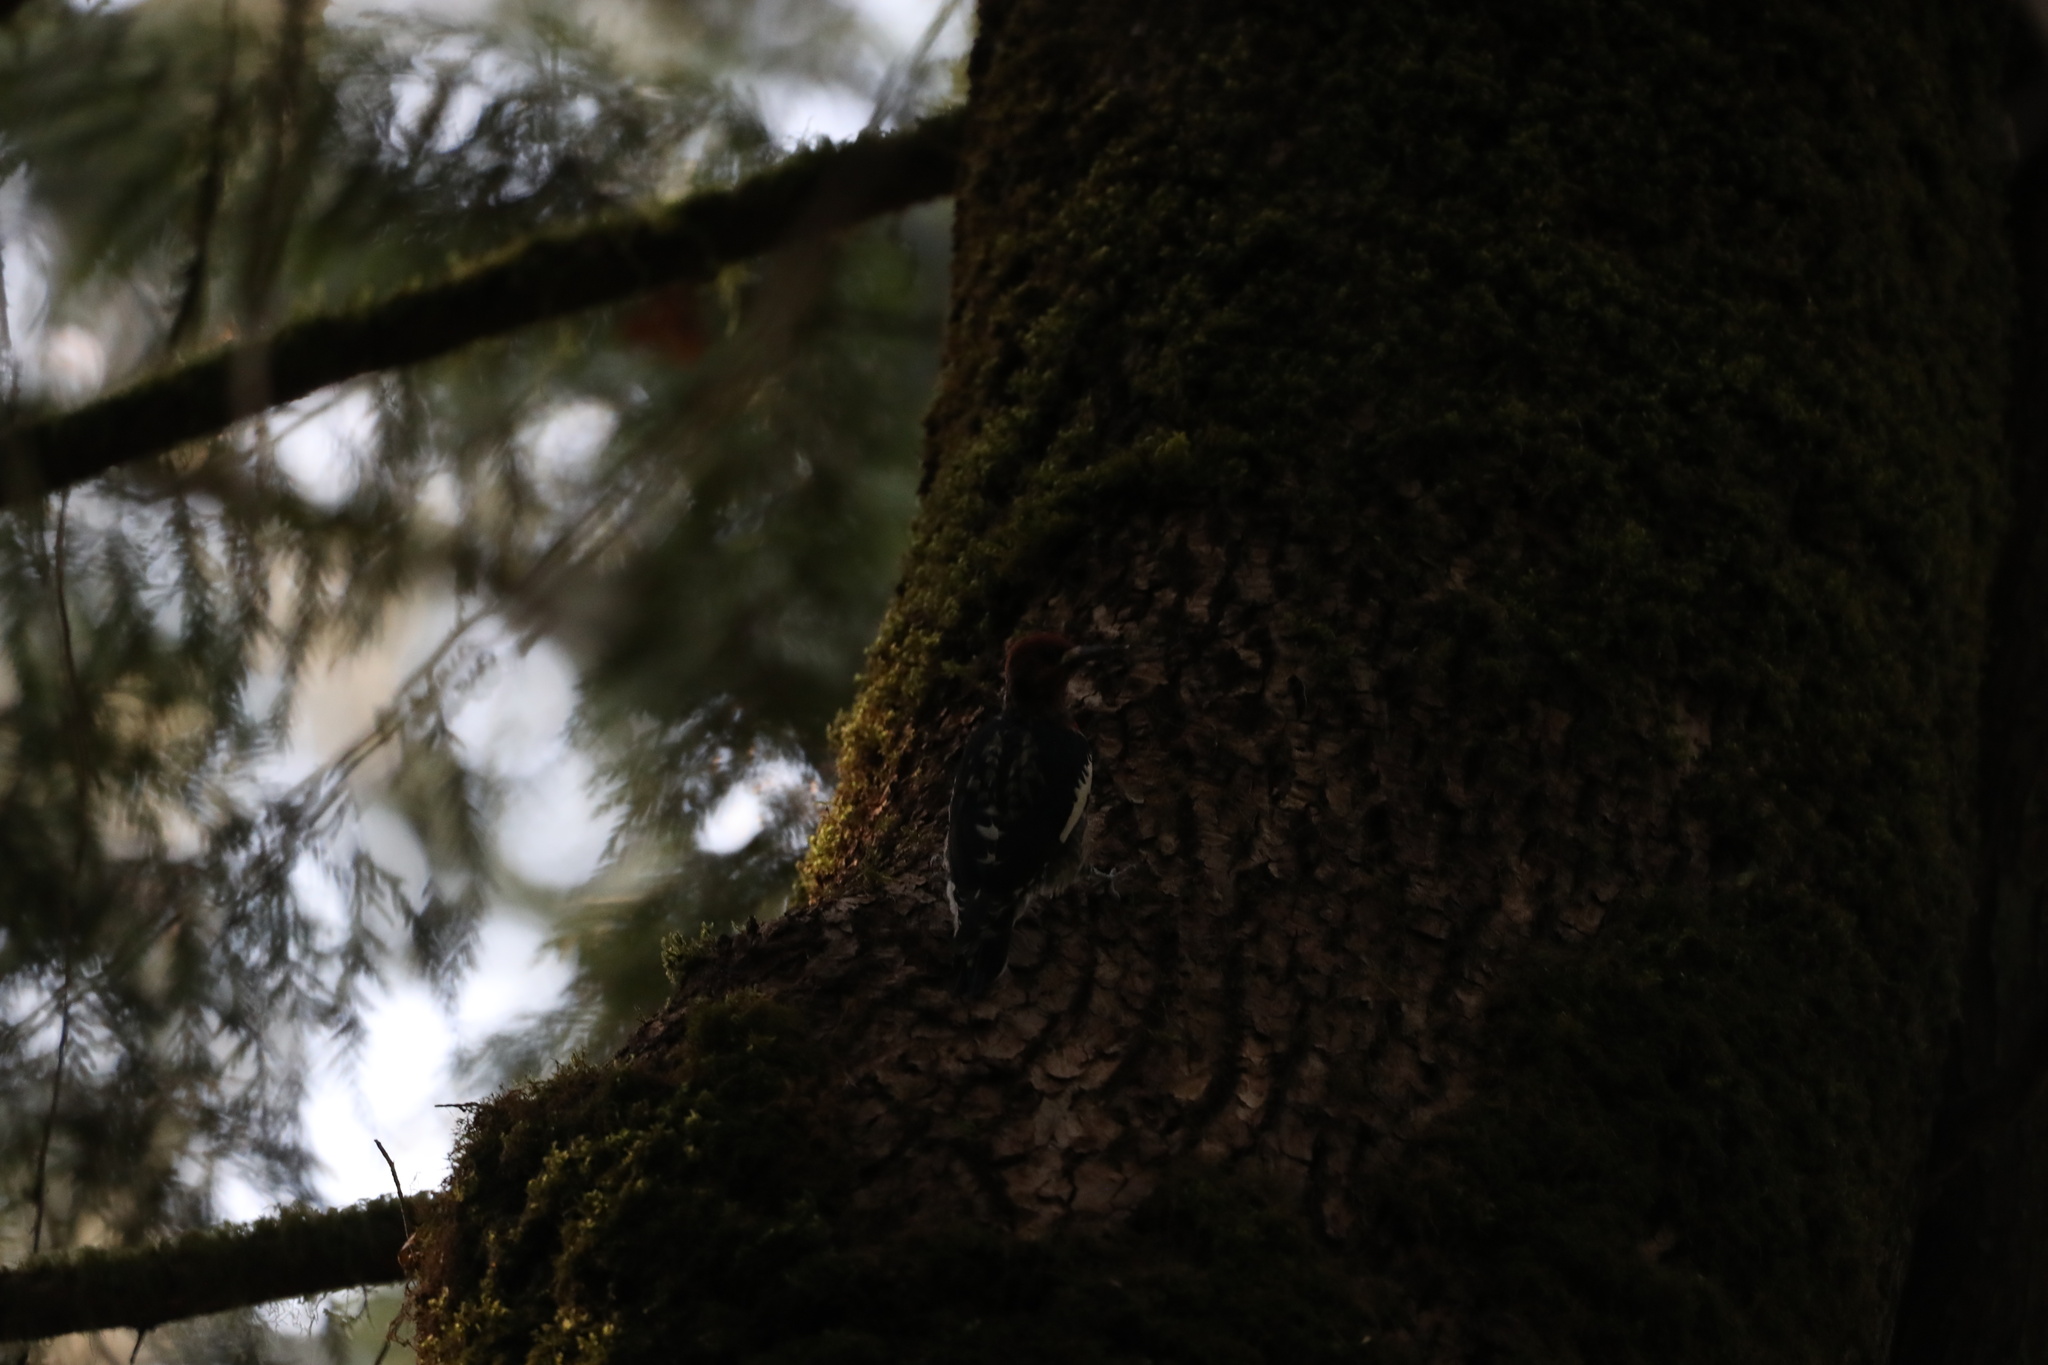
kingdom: Animalia
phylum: Chordata
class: Aves
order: Piciformes
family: Picidae
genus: Sphyrapicus
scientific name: Sphyrapicus ruber
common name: Red-breasted sapsucker
